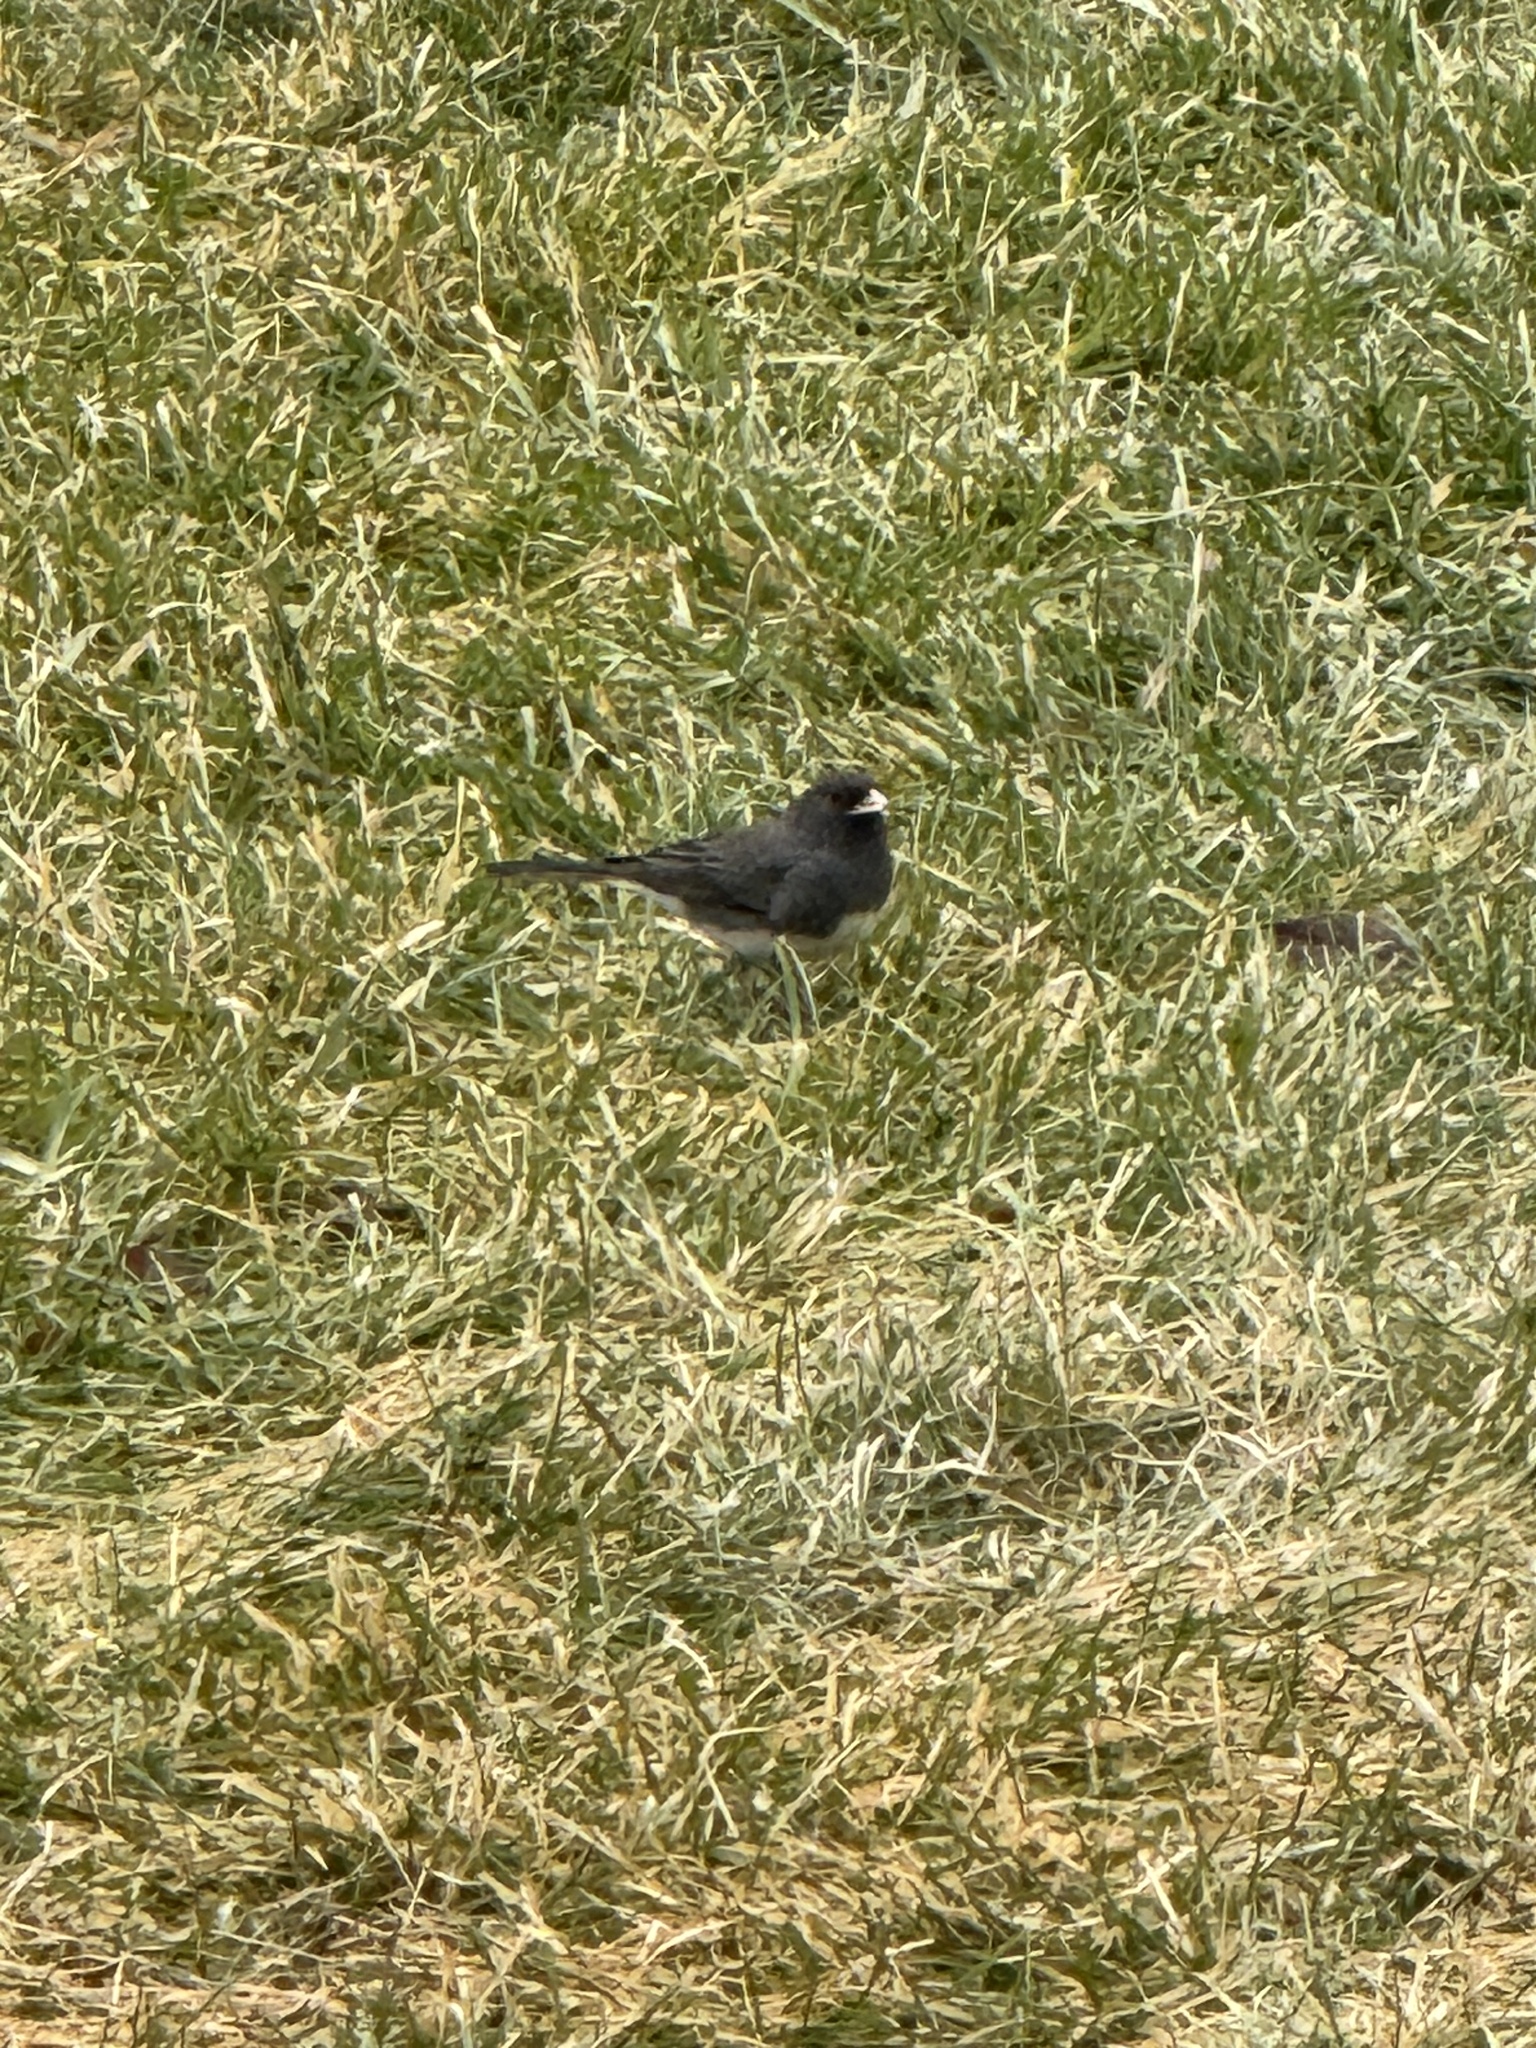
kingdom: Animalia
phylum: Chordata
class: Aves
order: Passeriformes
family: Passerellidae
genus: Junco
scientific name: Junco hyemalis
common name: Dark-eyed junco
